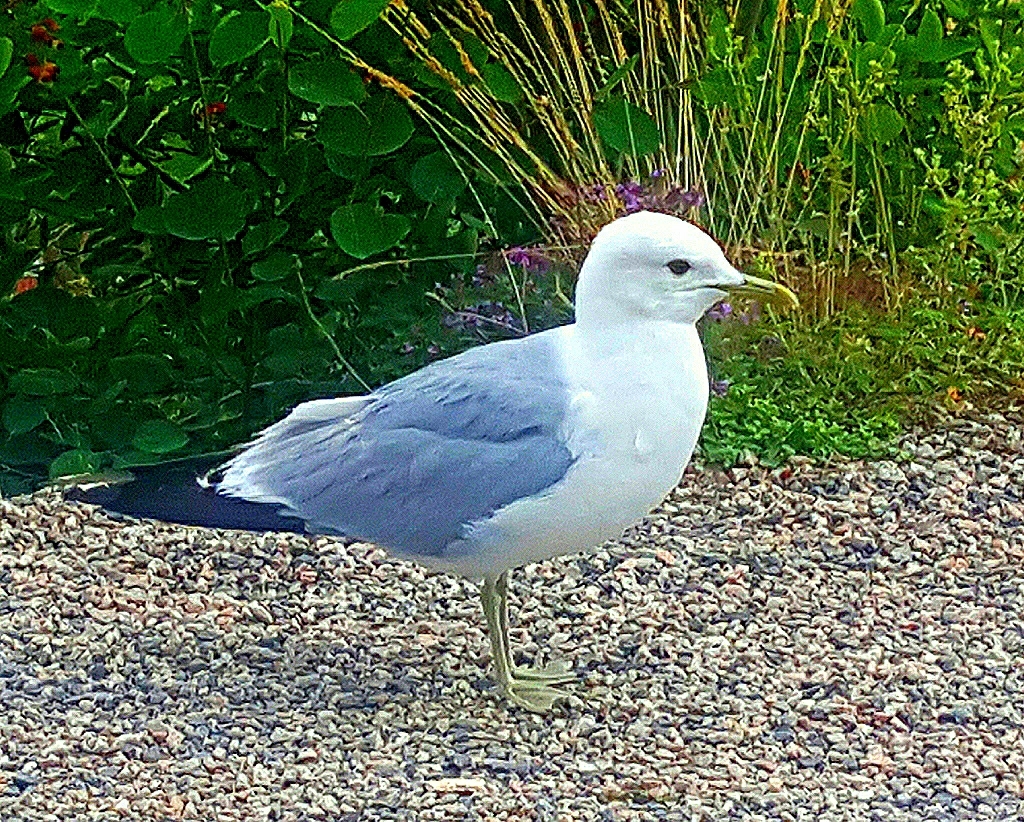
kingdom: Animalia
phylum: Chordata
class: Aves
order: Charadriiformes
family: Laridae
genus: Larus
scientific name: Larus canus
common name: Mew gull
